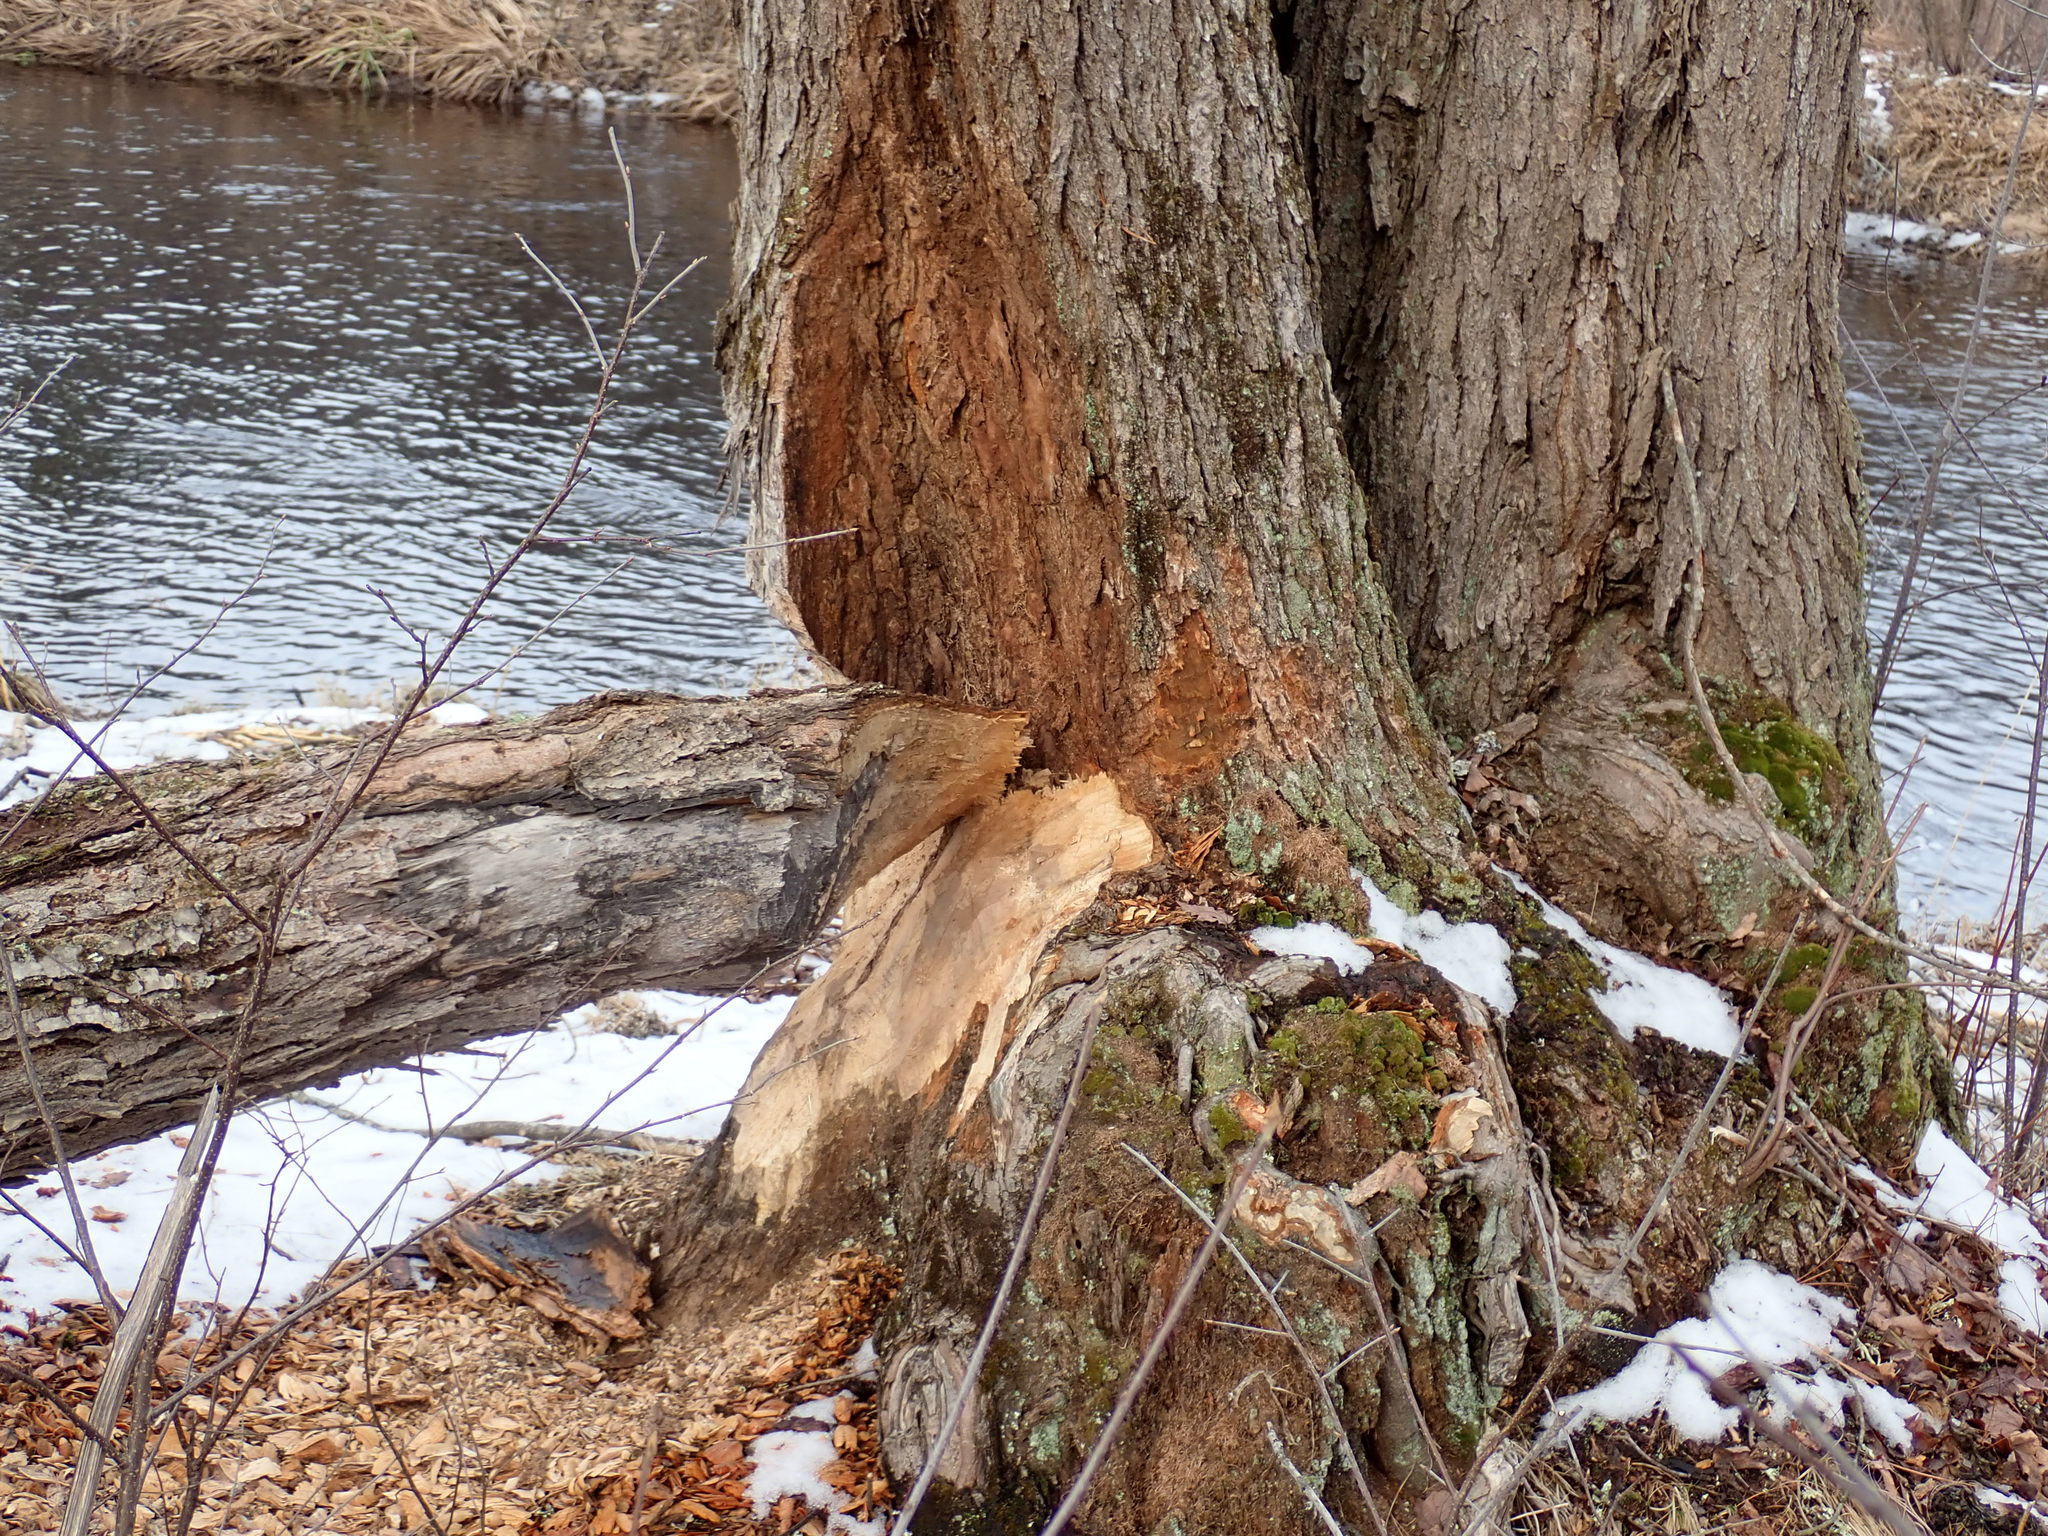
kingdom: Animalia
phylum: Chordata
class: Mammalia
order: Rodentia
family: Castoridae
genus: Castor
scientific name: Castor canadensis
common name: American beaver
